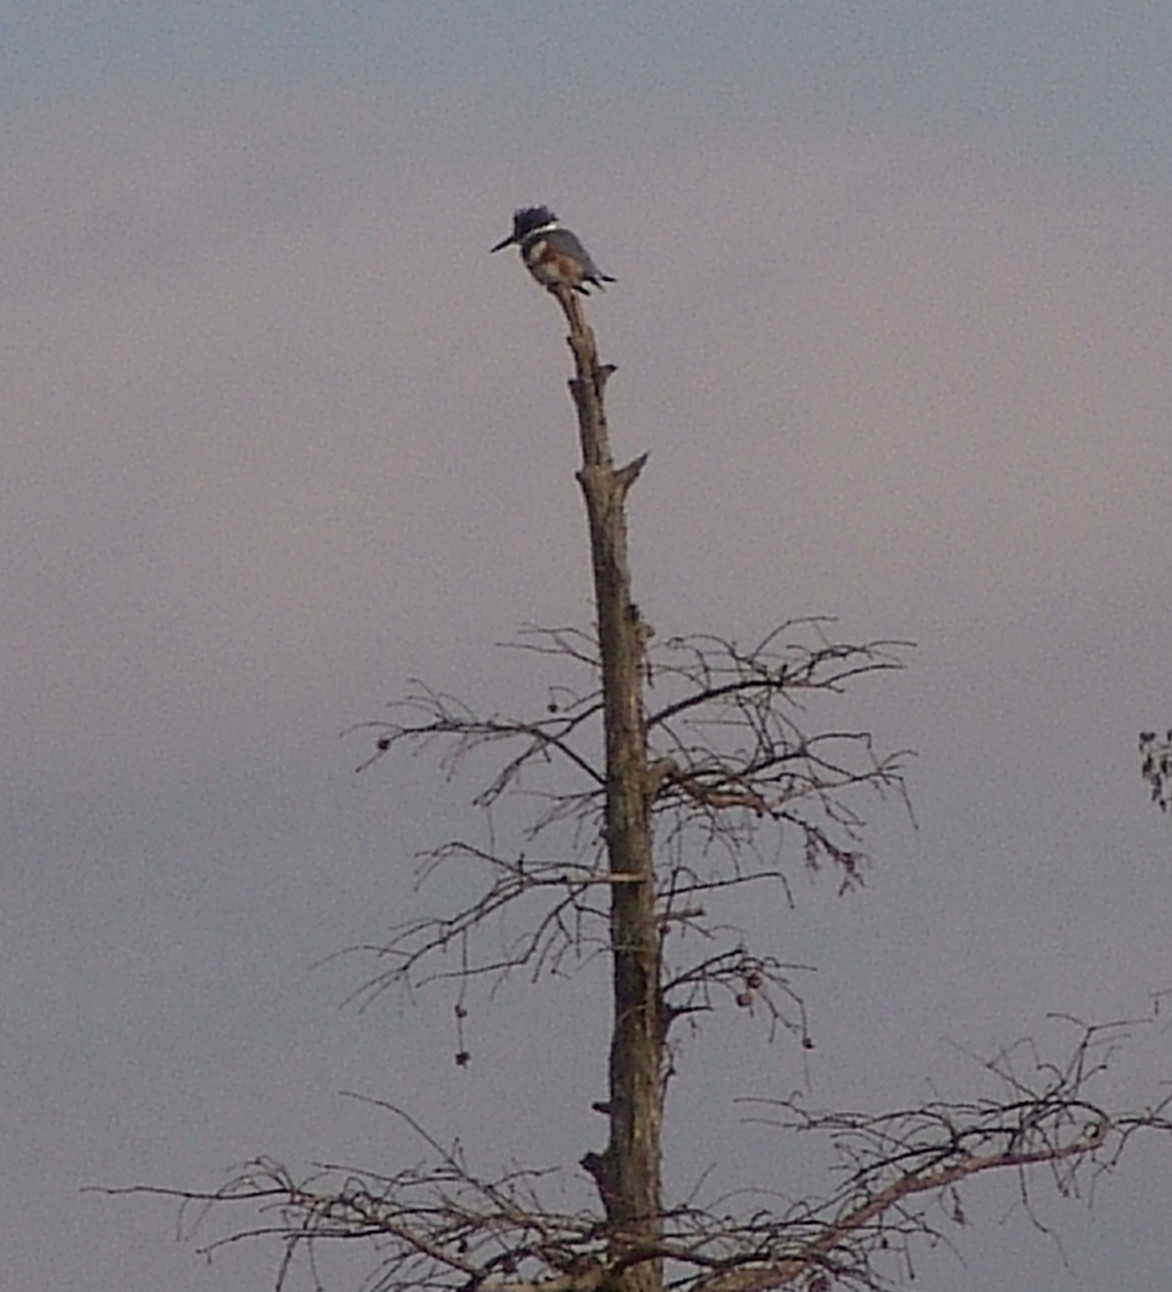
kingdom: Animalia
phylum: Chordata
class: Aves
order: Coraciiformes
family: Alcedinidae
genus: Megaceryle
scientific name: Megaceryle alcyon
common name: Belted kingfisher
